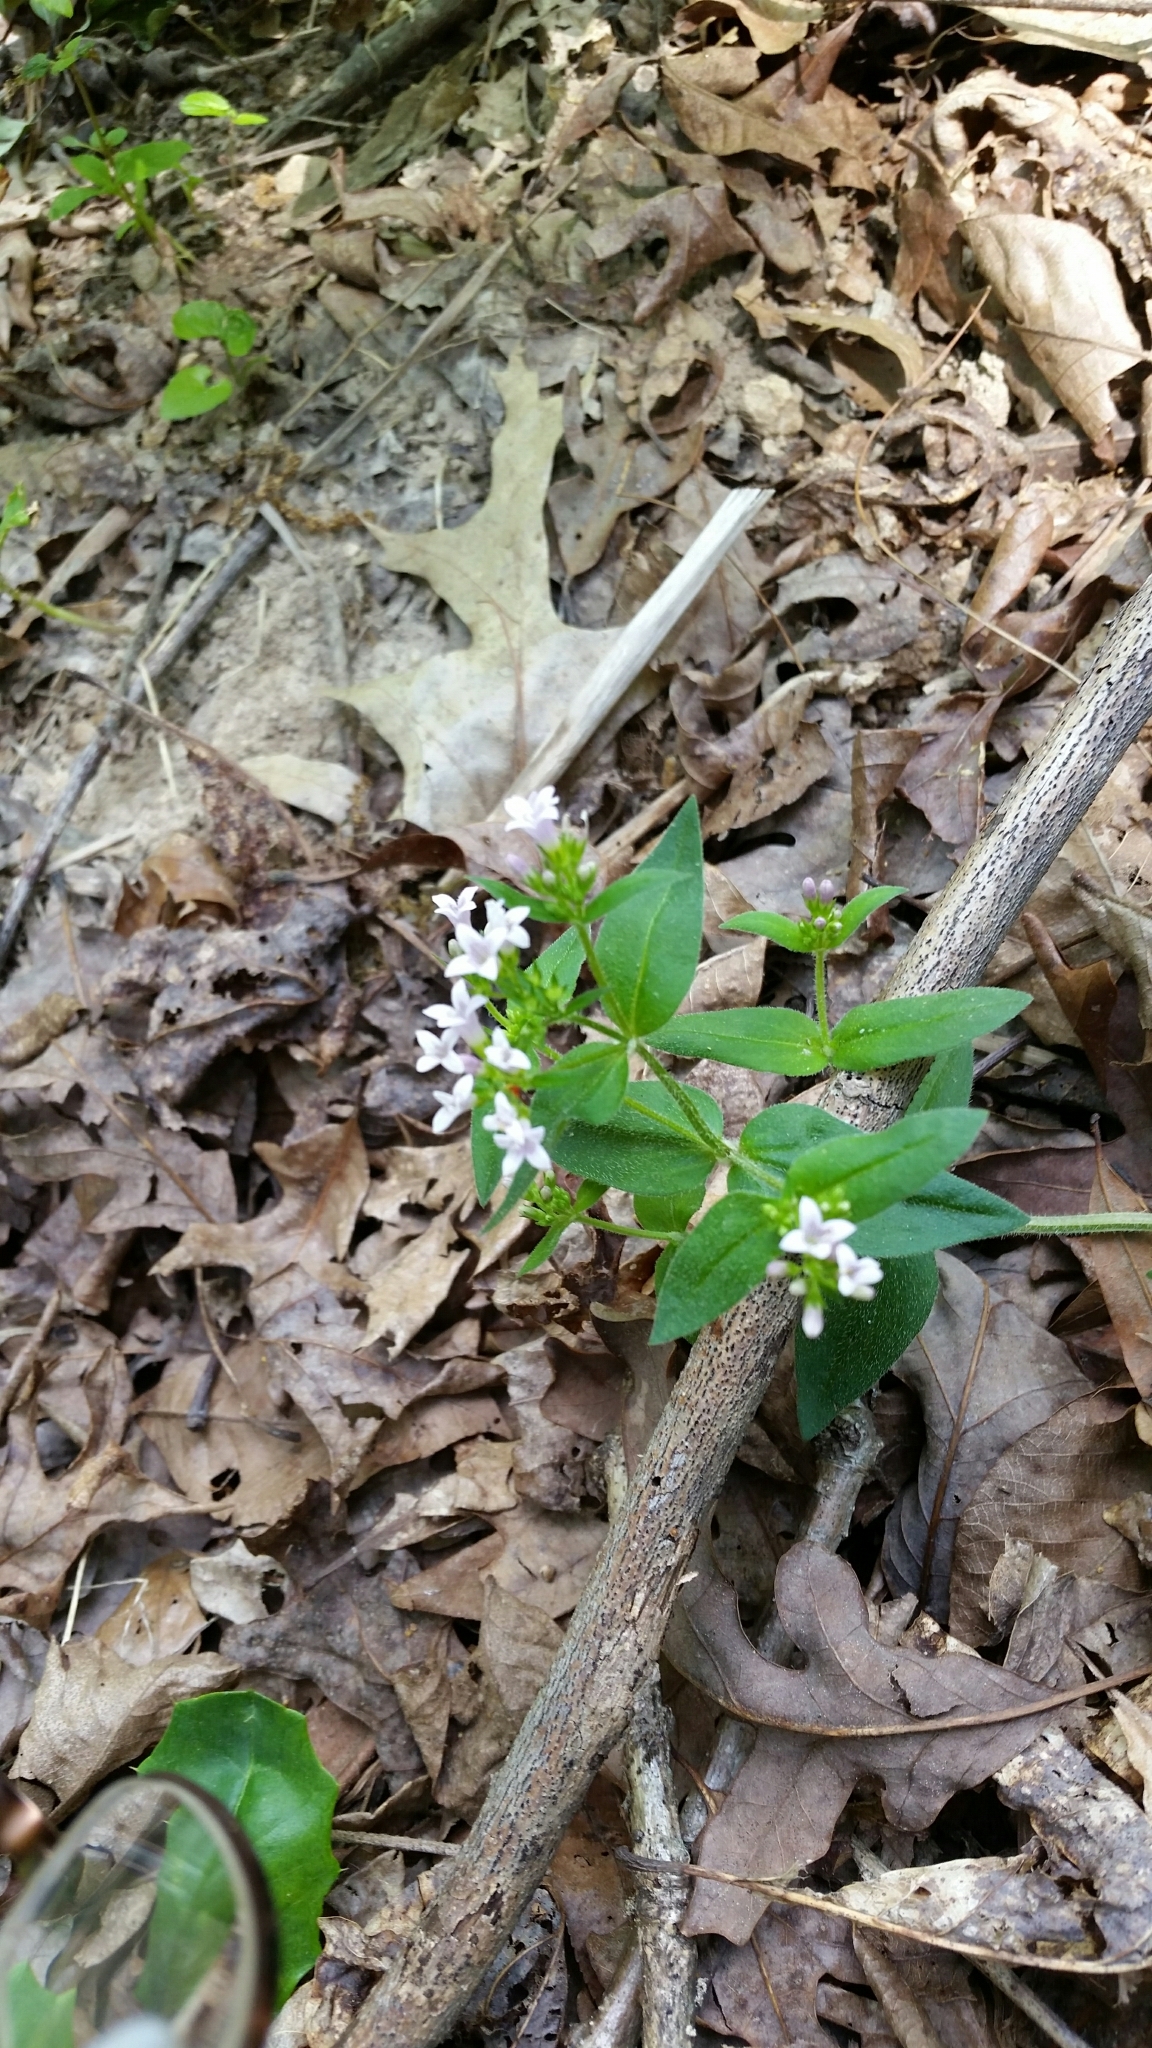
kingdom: Plantae
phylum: Tracheophyta
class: Magnoliopsida
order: Gentianales
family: Rubiaceae
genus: Houstonia
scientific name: Houstonia purpurea
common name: Summer bluet
